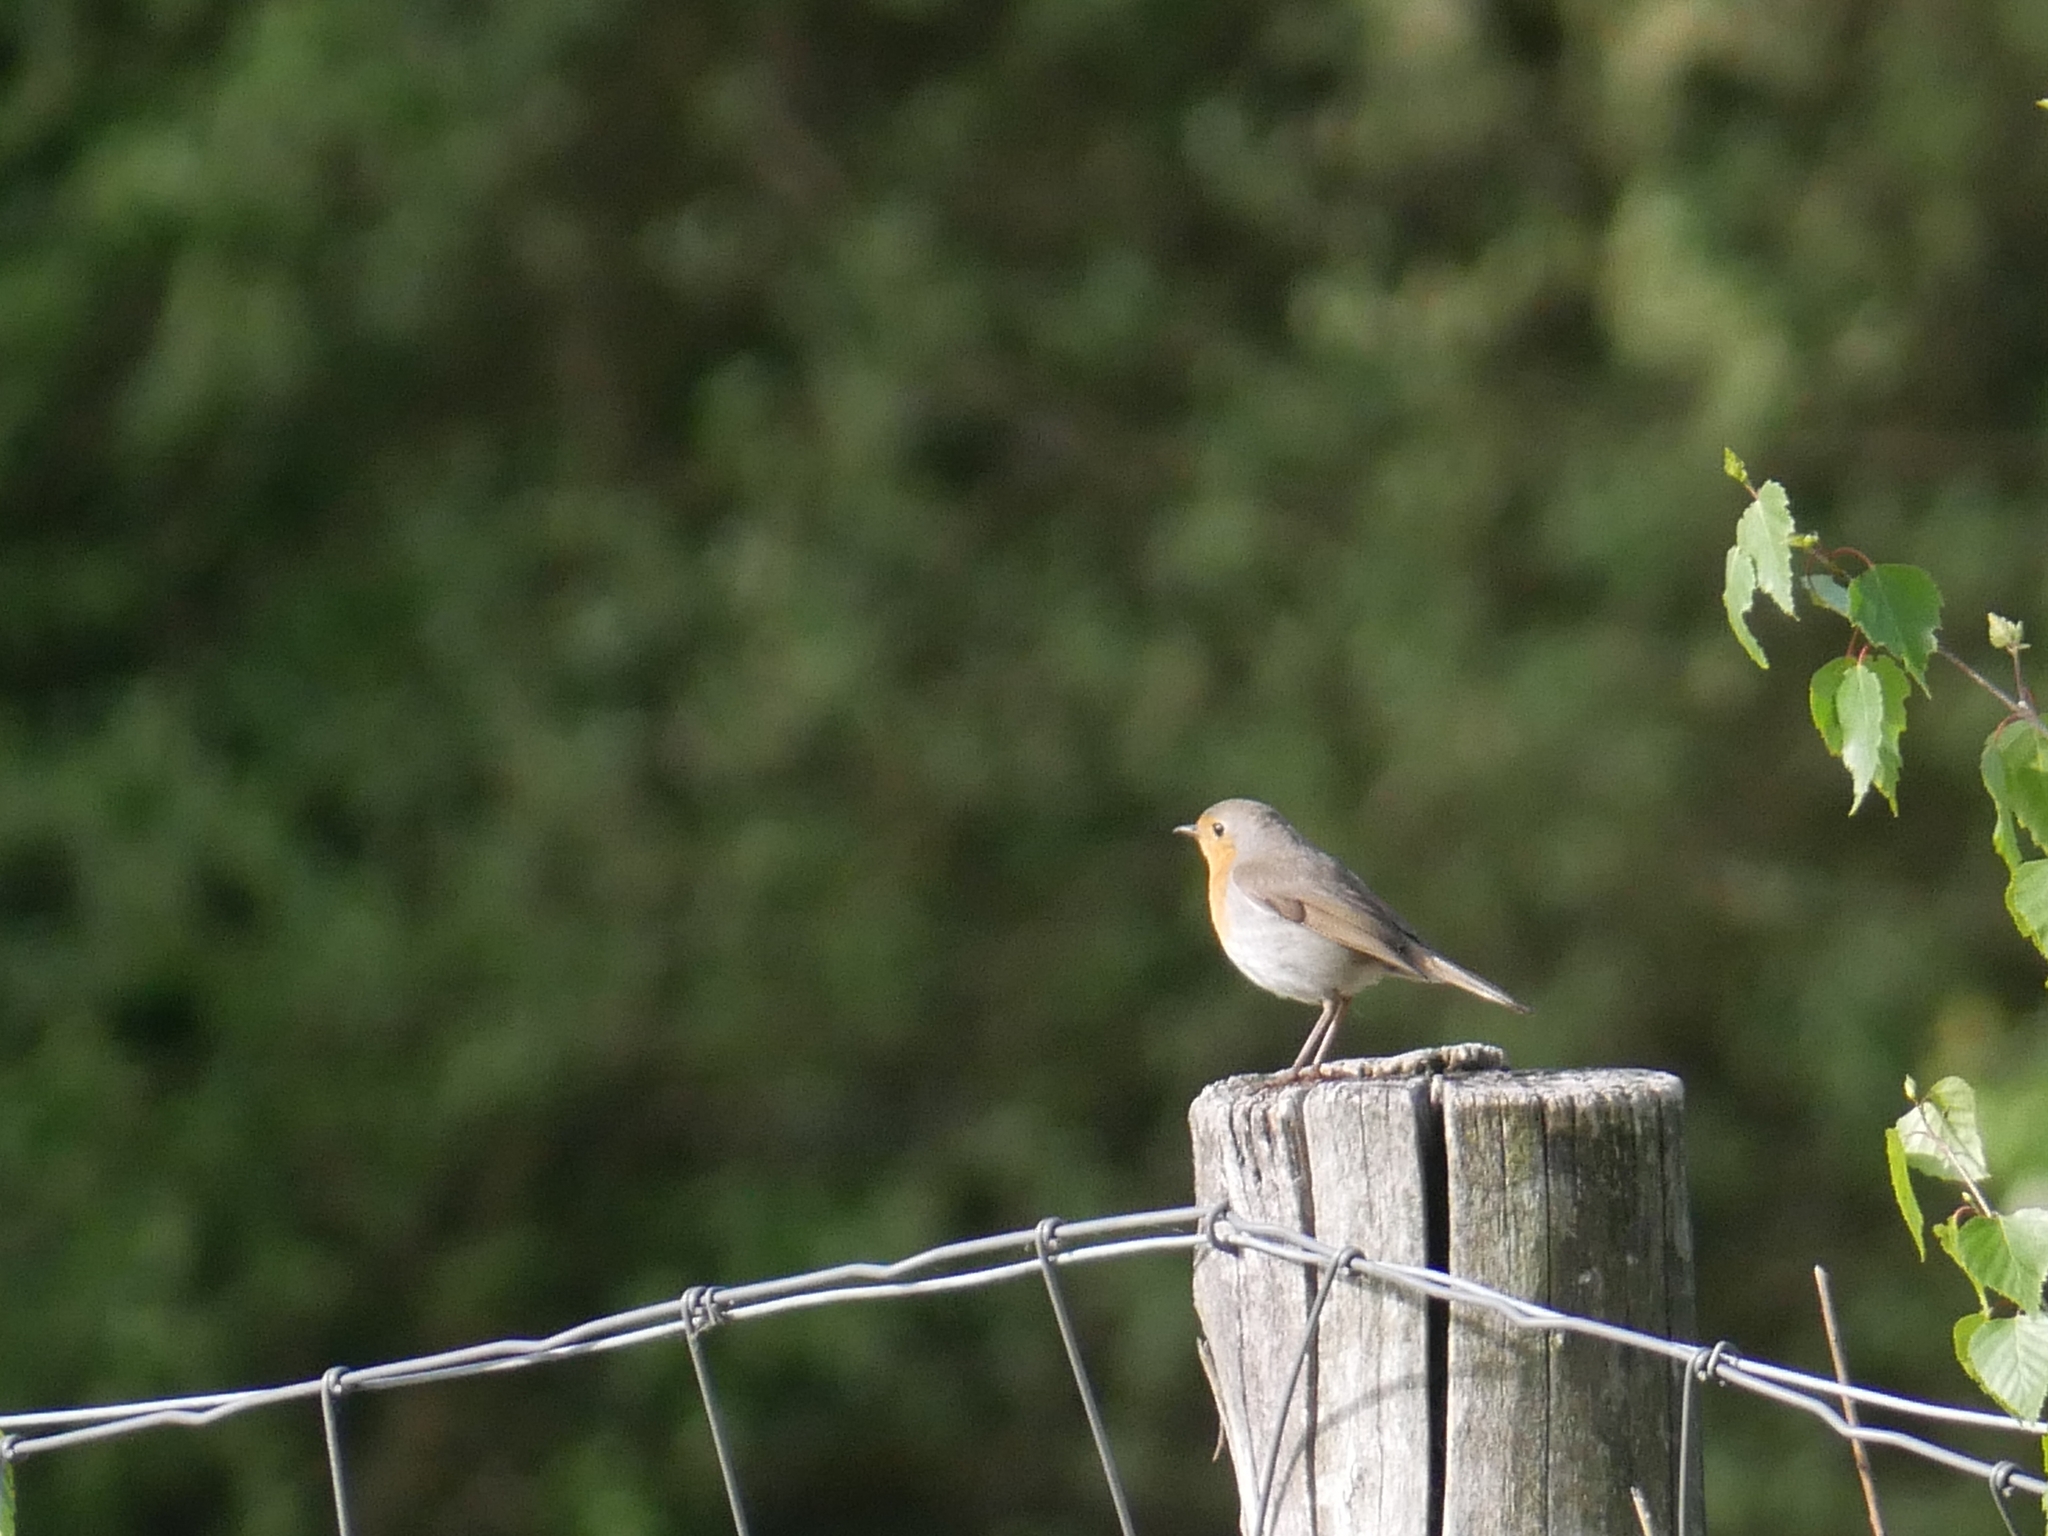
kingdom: Animalia
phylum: Chordata
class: Aves
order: Passeriformes
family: Muscicapidae
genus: Erithacus
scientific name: Erithacus rubecula
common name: European robin
